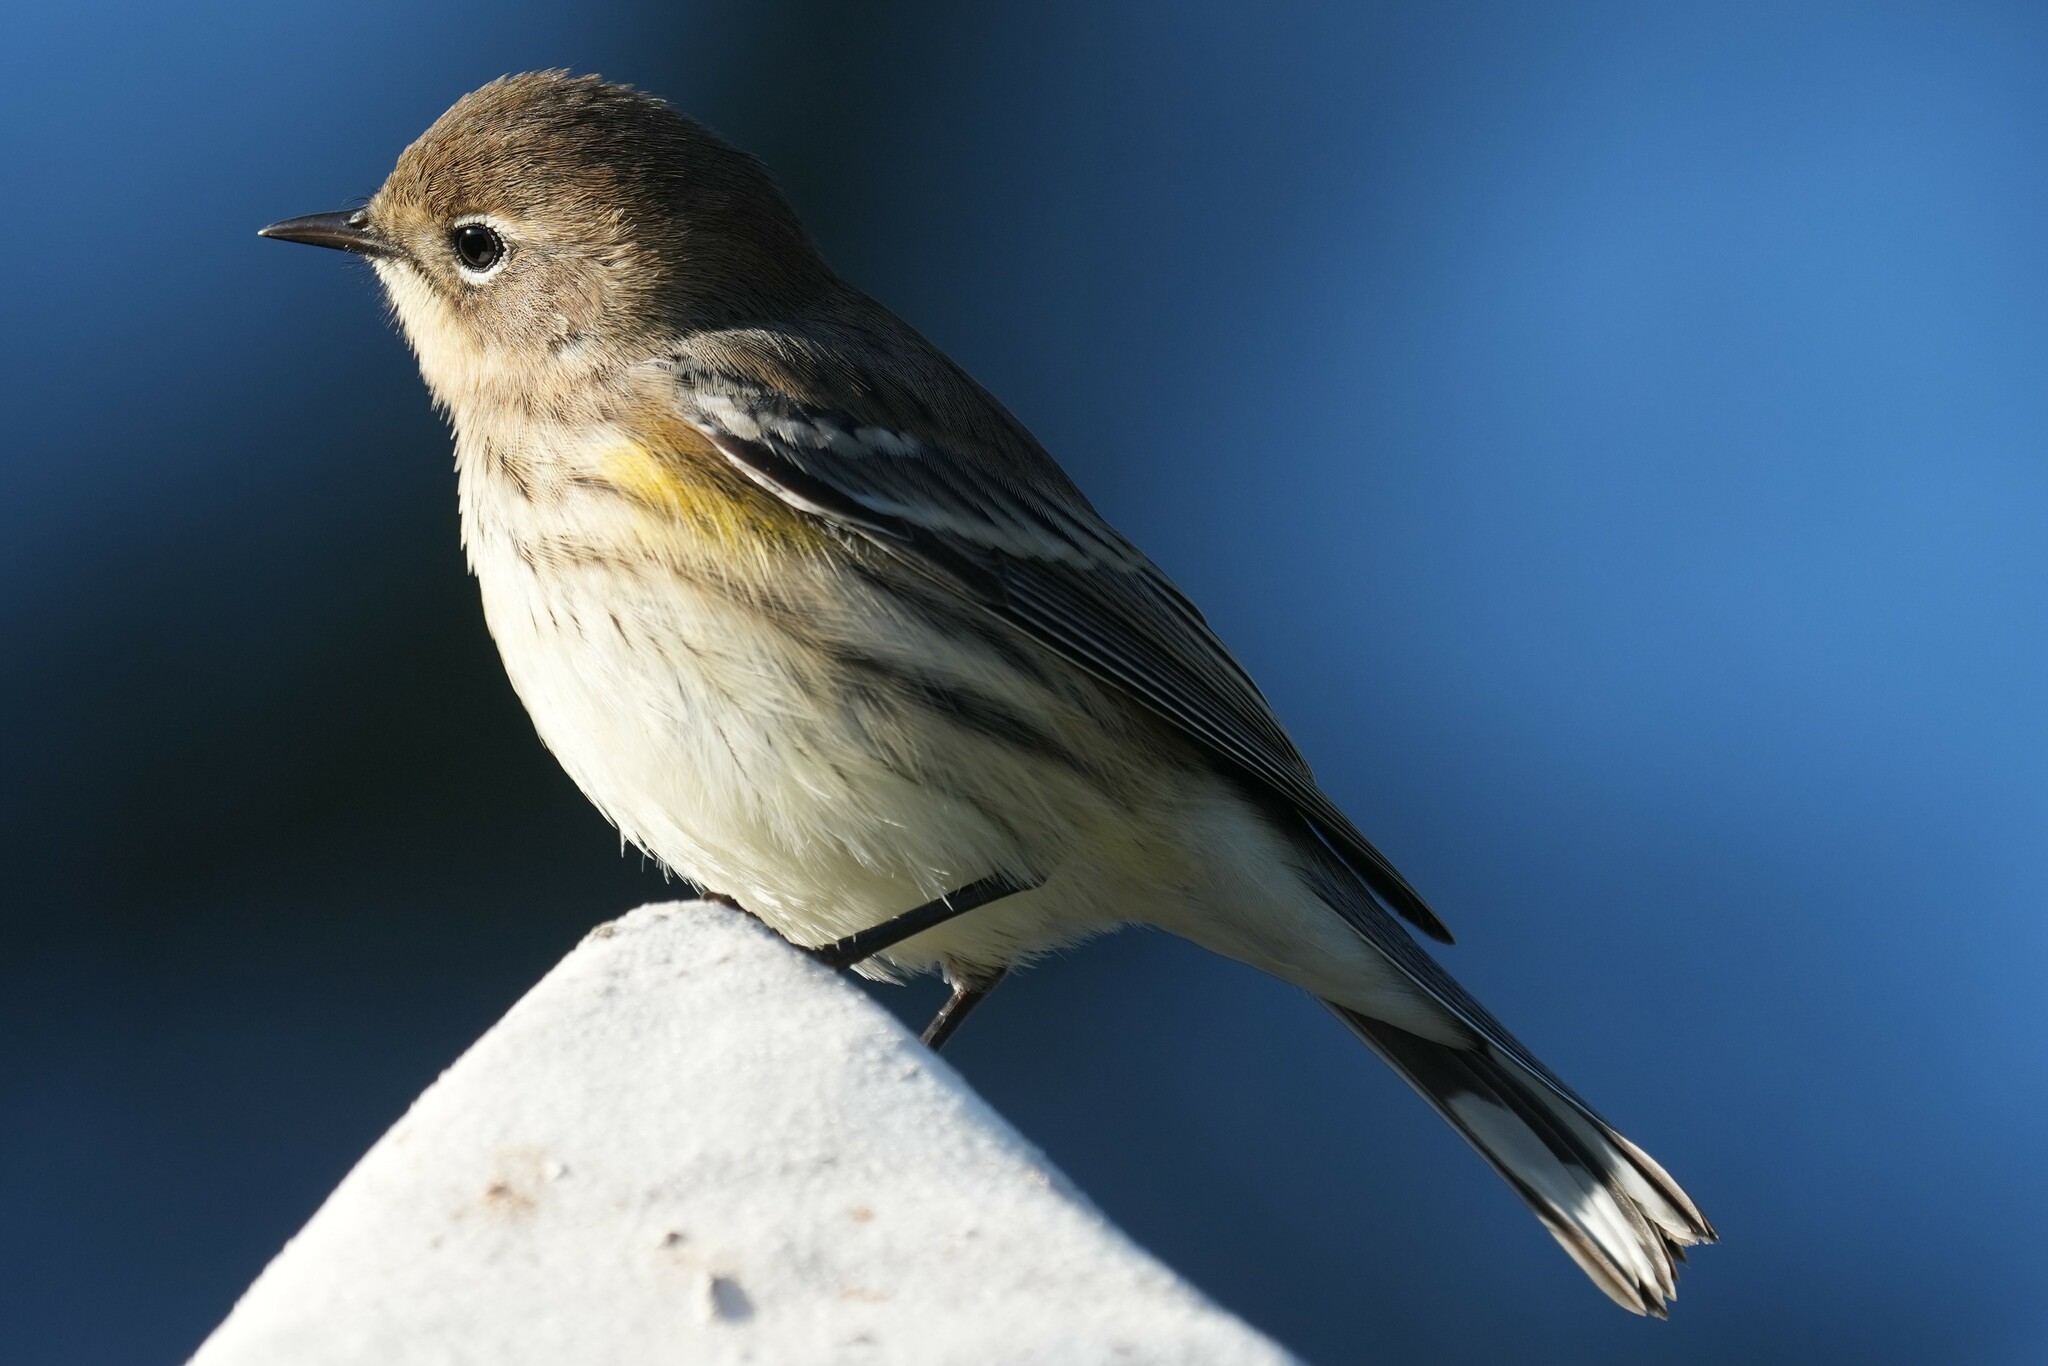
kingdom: Animalia
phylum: Chordata
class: Aves
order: Passeriformes
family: Parulidae
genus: Setophaga
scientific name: Setophaga coronata
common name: Myrtle warbler
